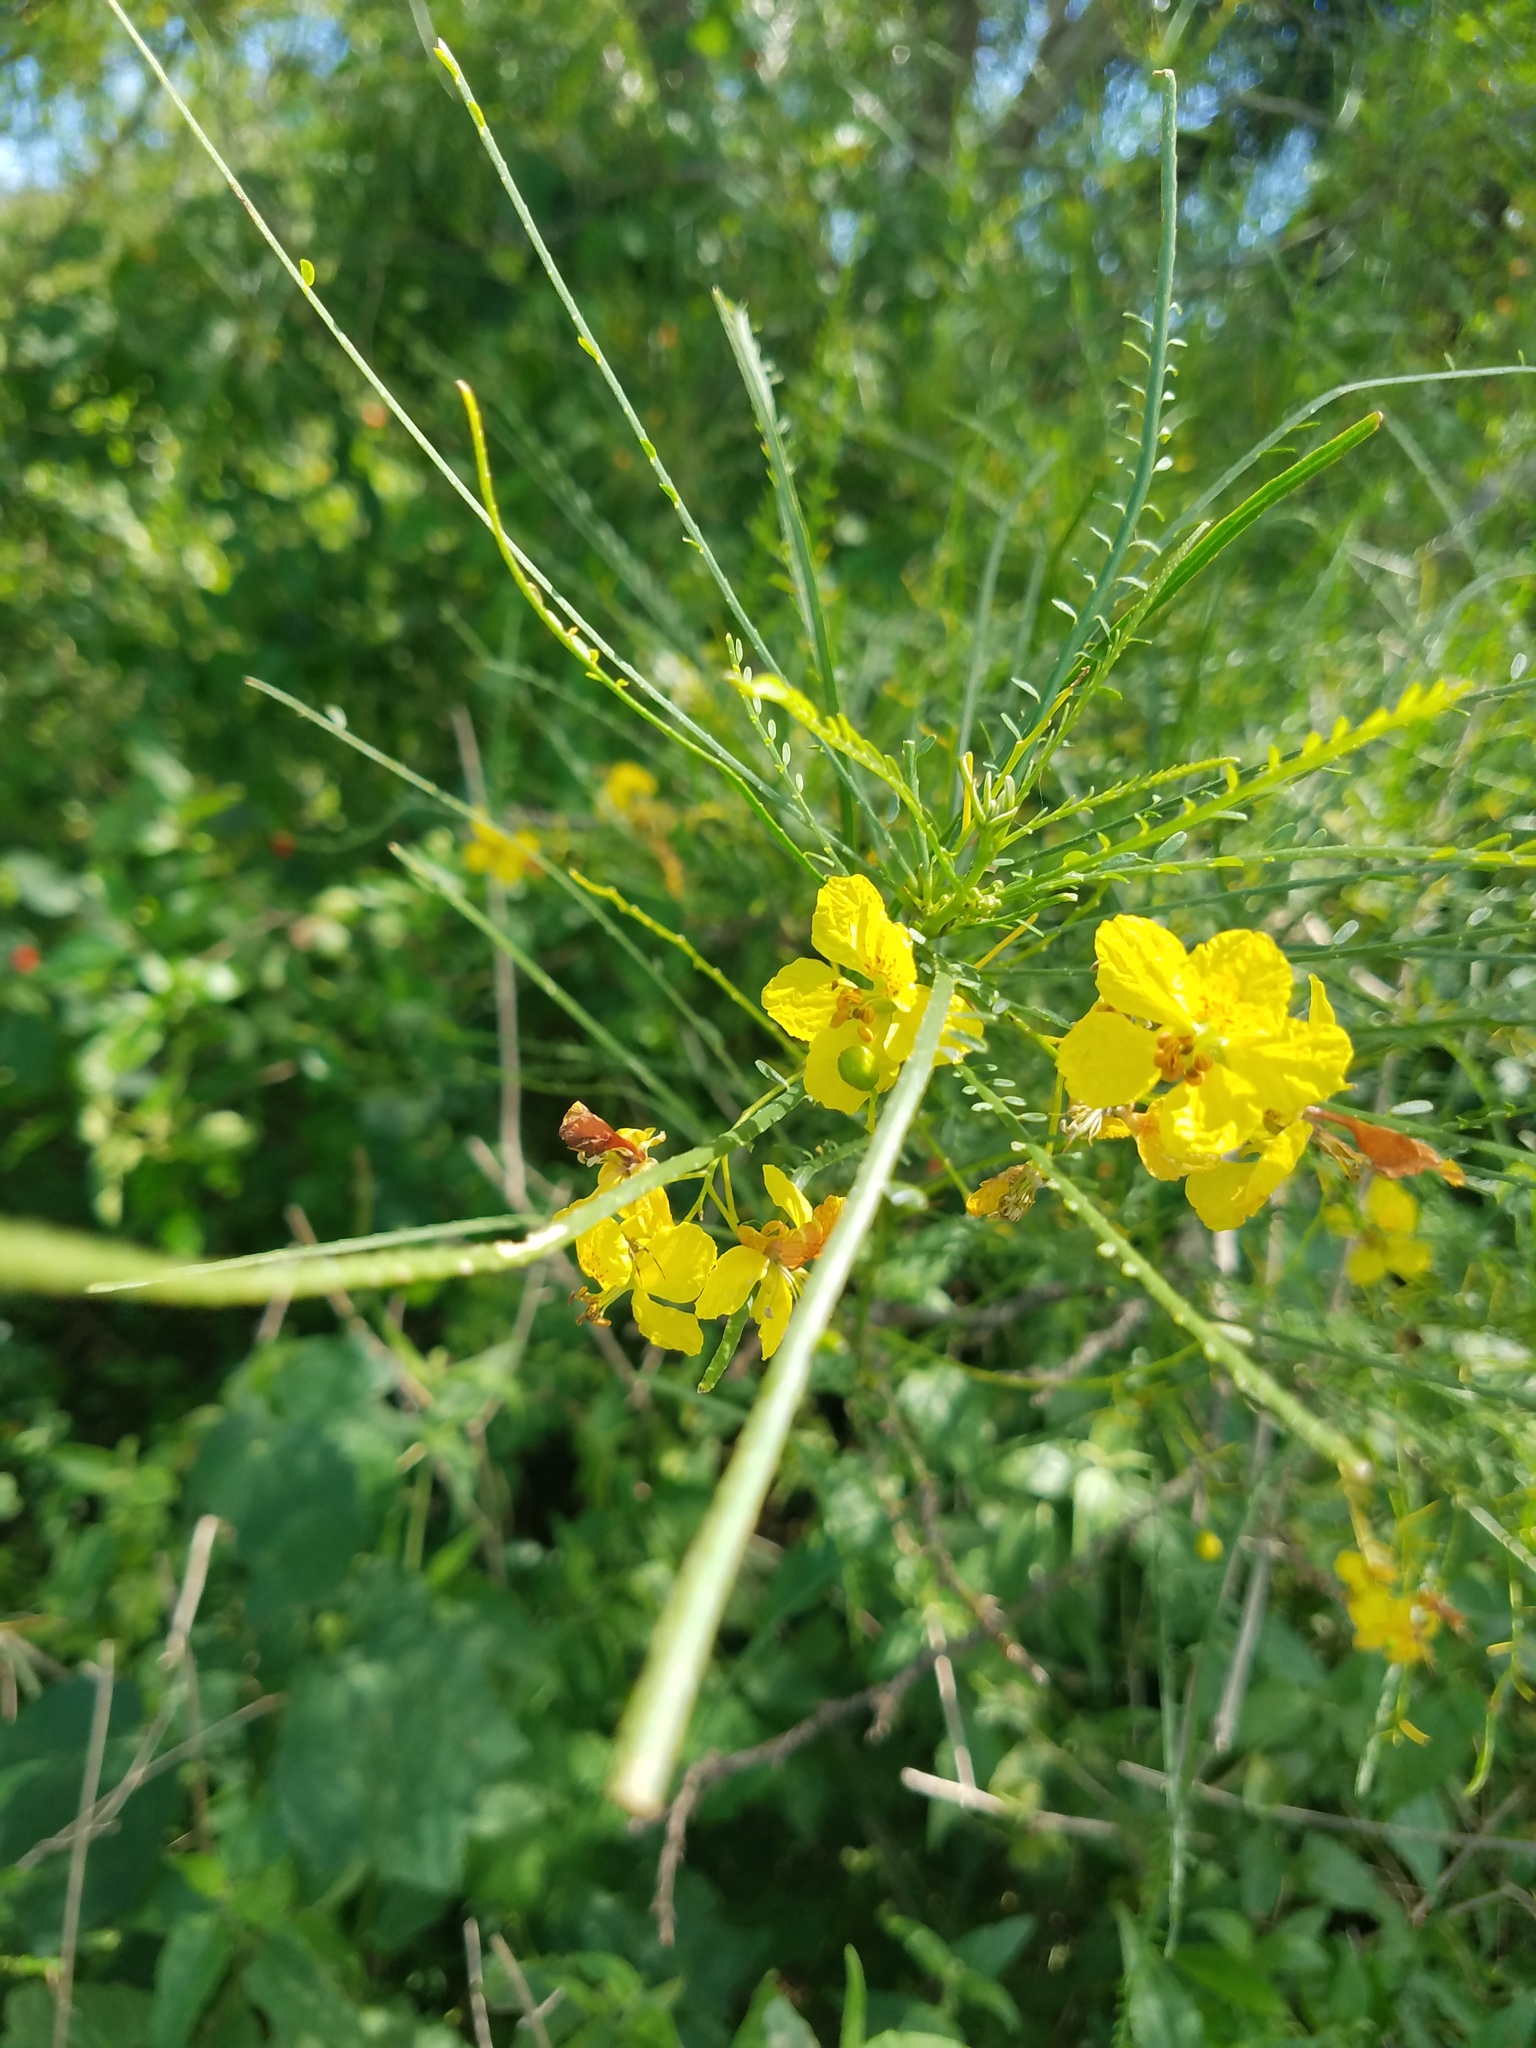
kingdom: Plantae
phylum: Tracheophyta
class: Magnoliopsida
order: Fabales
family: Fabaceae
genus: Parkinsonia
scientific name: Parkinsonia aculeata
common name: Jerusalem thorn
